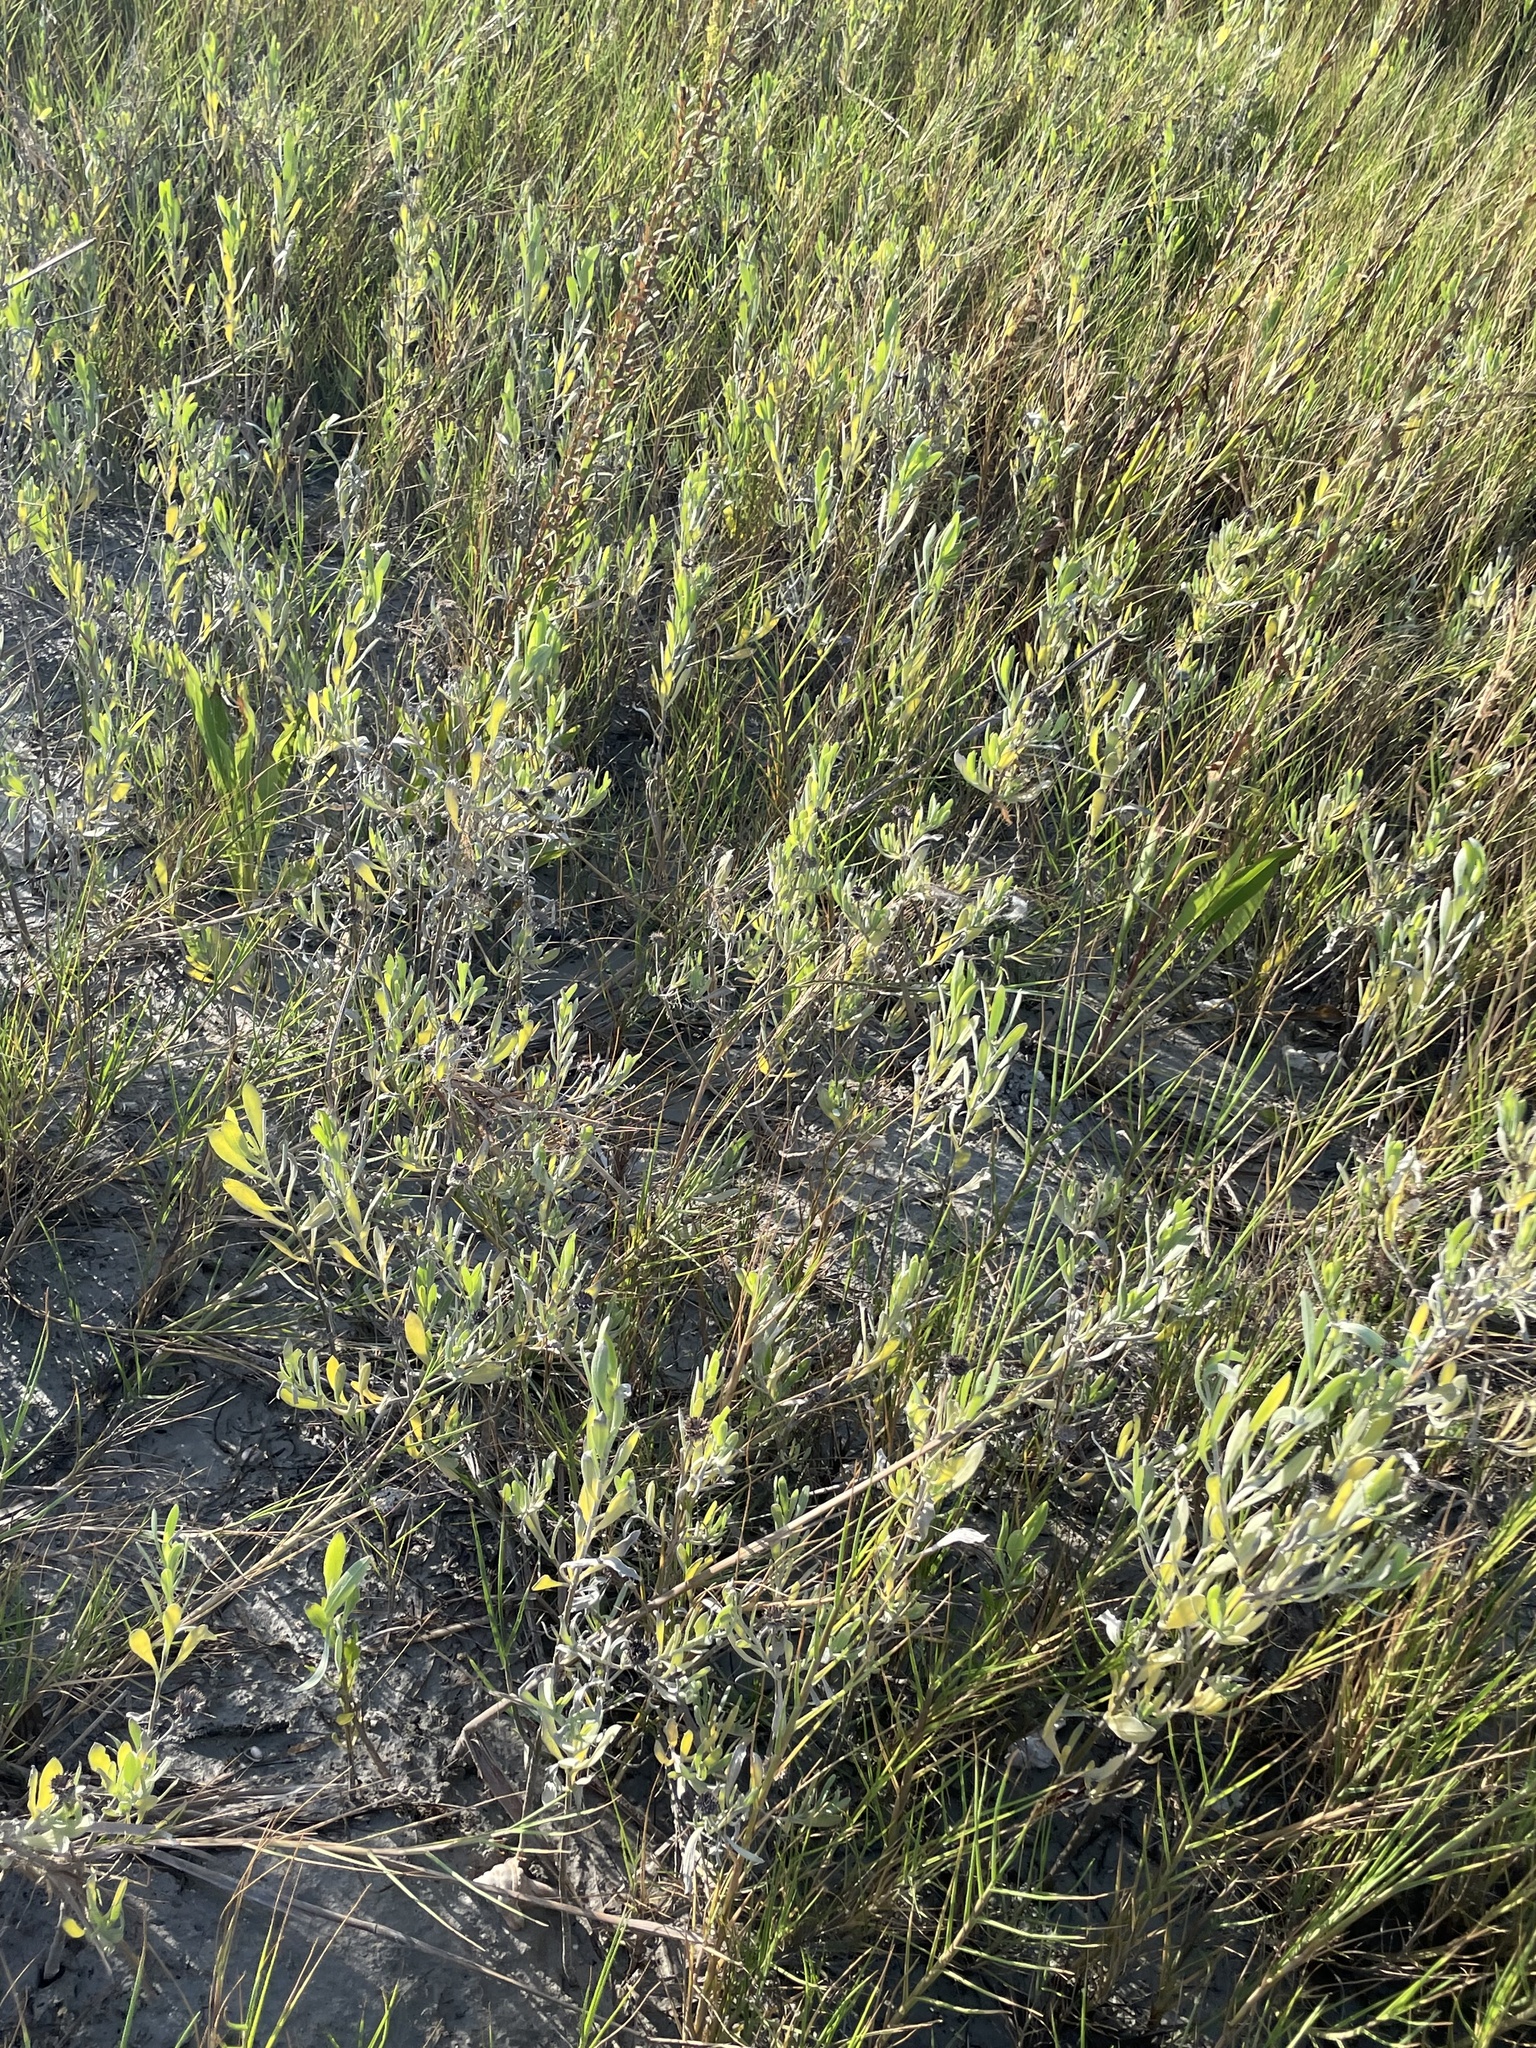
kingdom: Plantae
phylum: Tracheophyta
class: Magnoliopsida
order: Asterales
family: Asteraceae
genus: Borrichia
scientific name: Borrichia frutescens
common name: Sea oxeye
